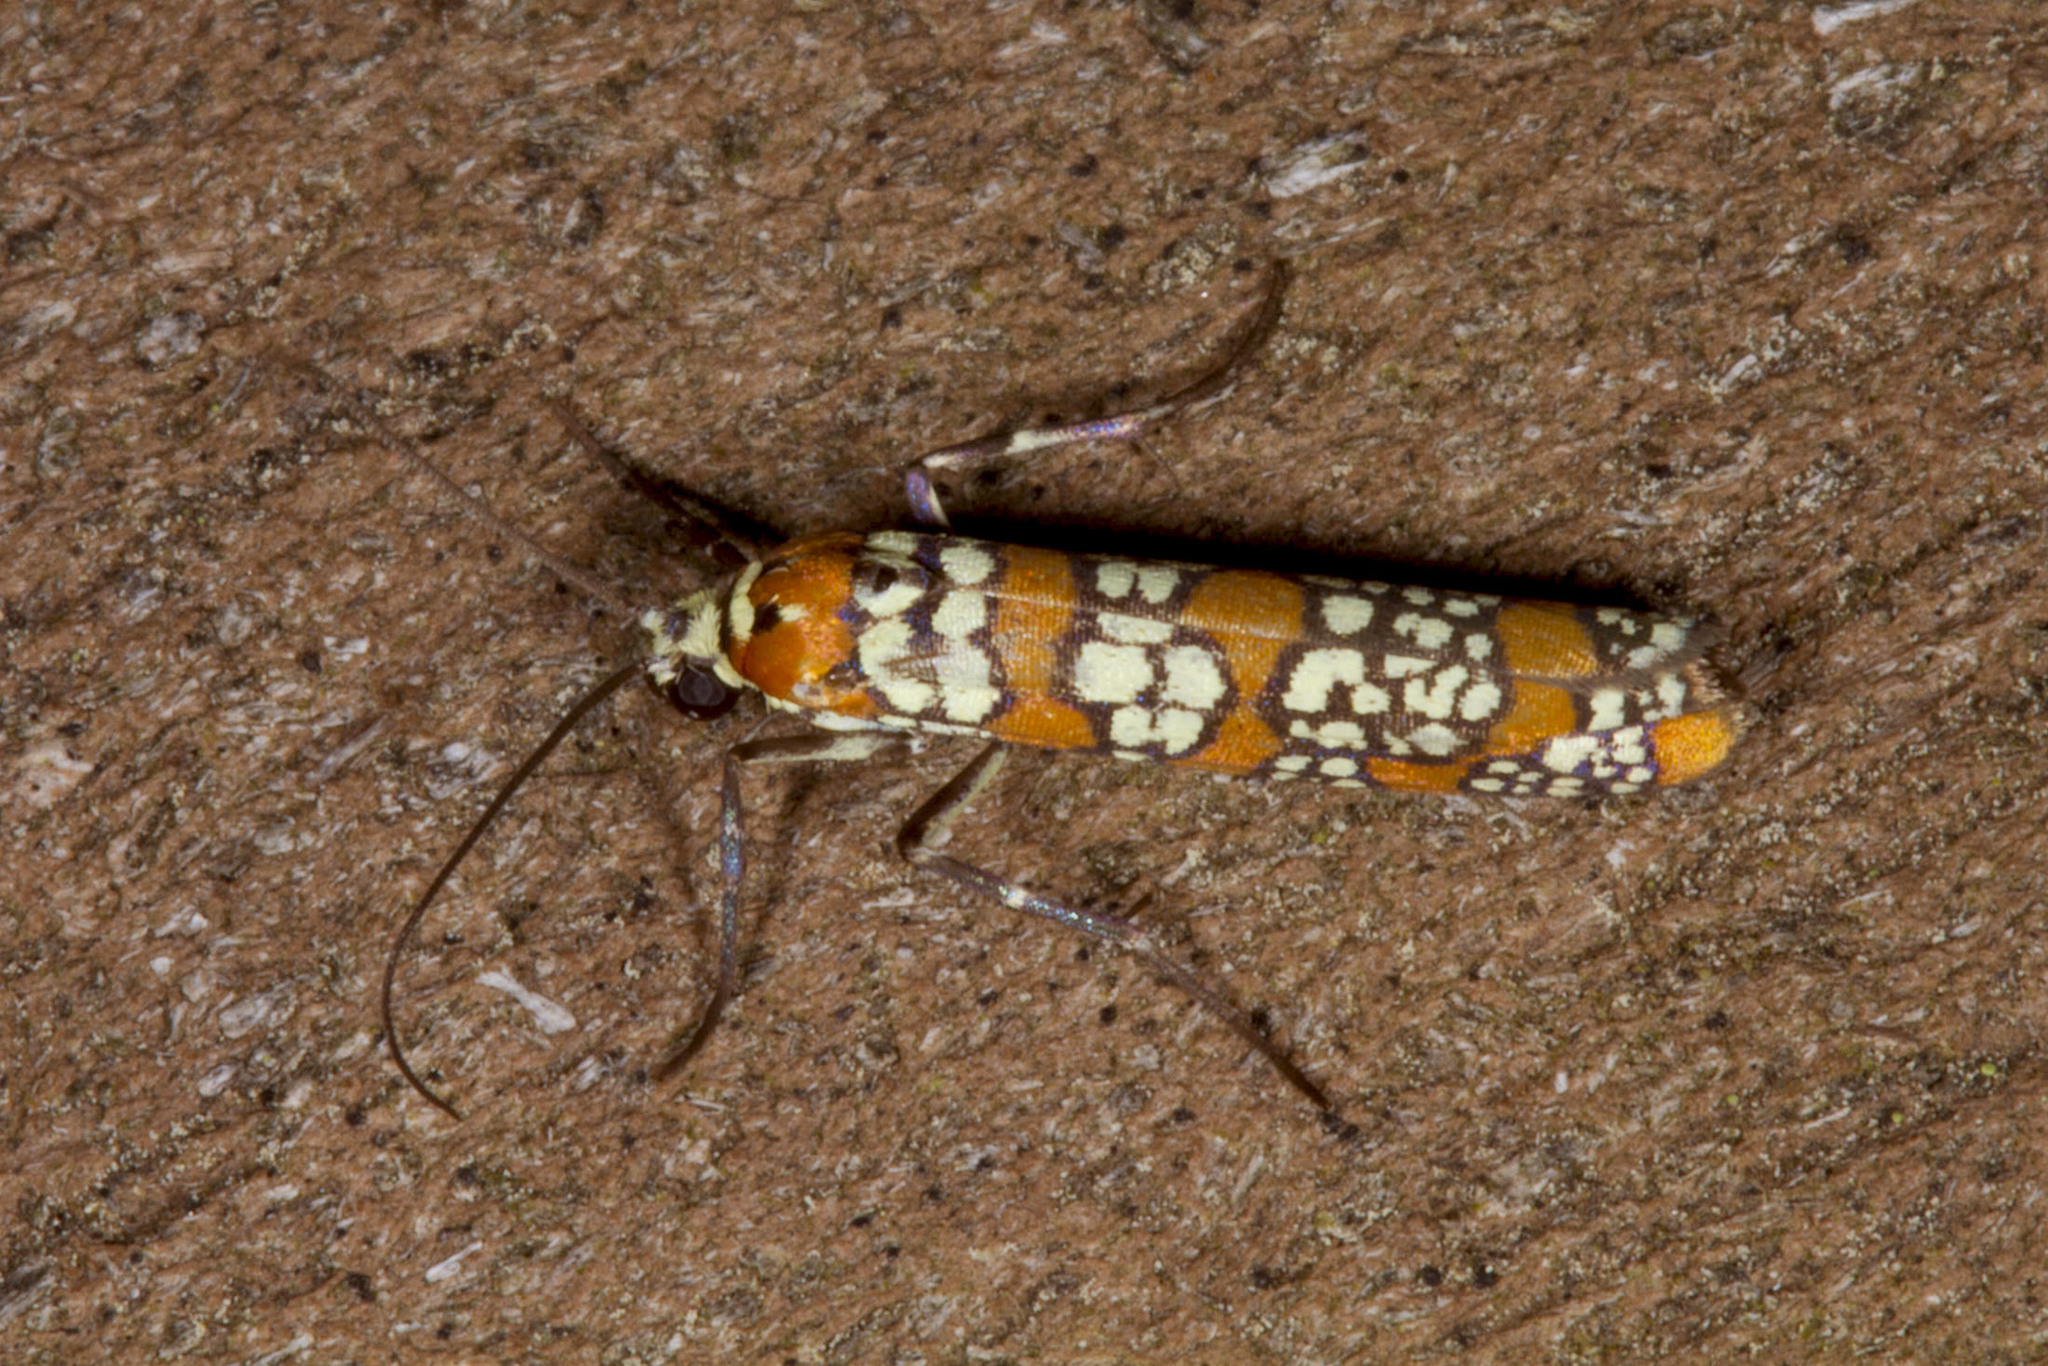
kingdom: Animalia
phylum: Arthropoda
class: Insecta
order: Lepidoptera
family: Attevidae
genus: Atteva
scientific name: Atteva punctella
